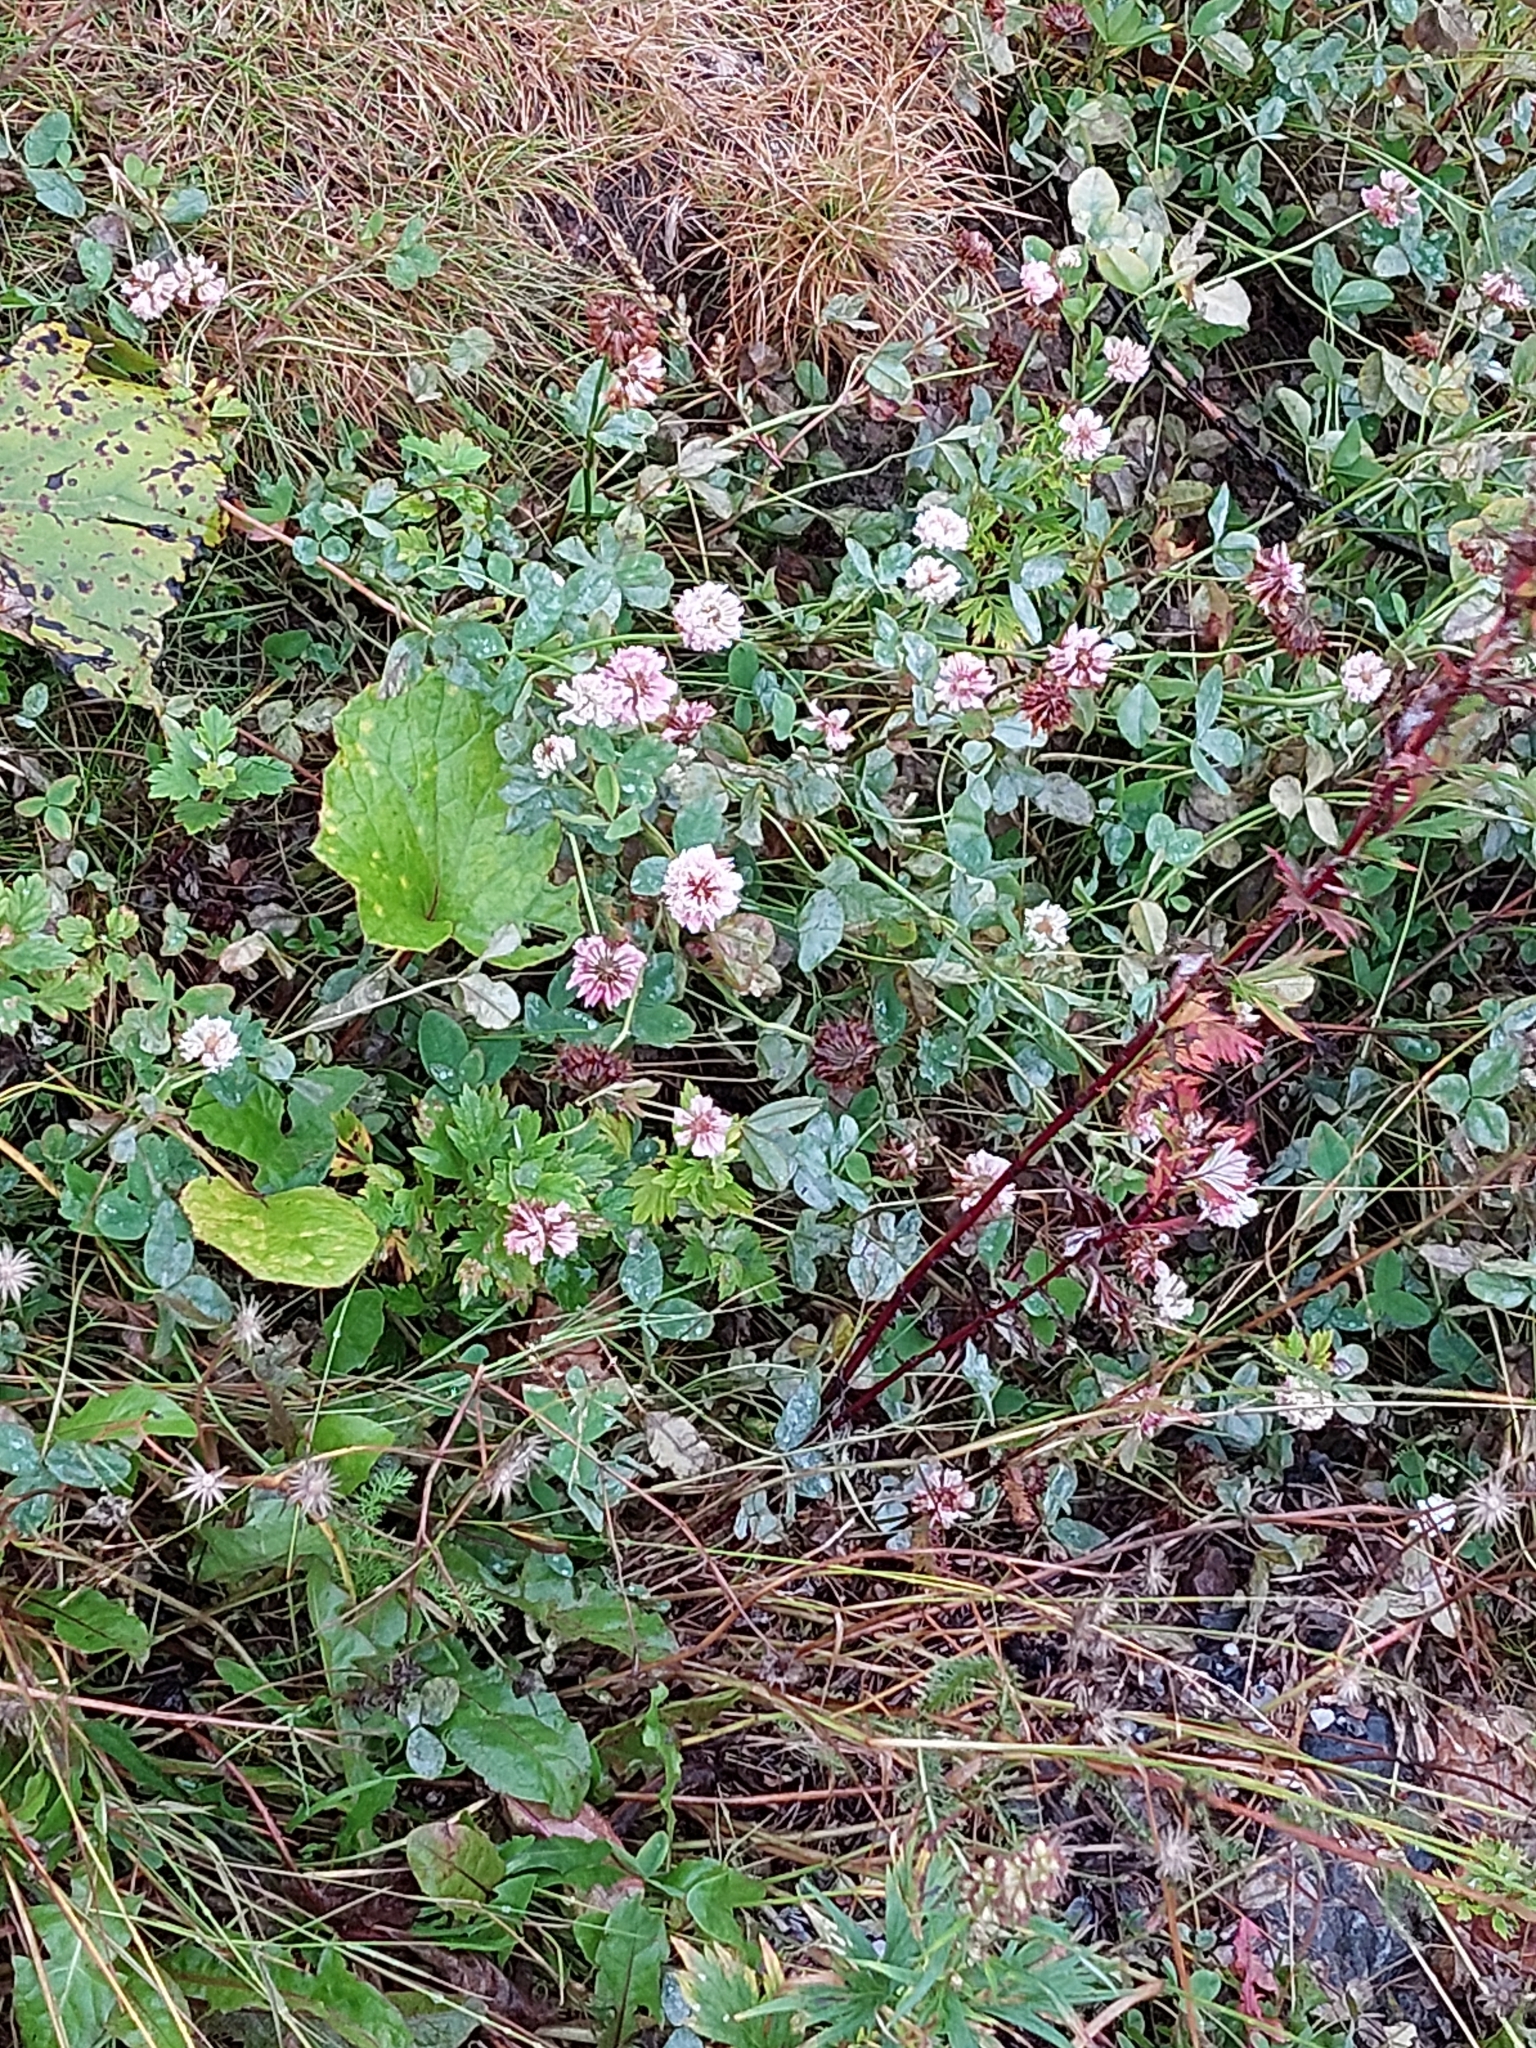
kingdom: Plantae
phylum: Tracheophyta
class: Magnoliopsida
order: Fabales
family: Fabaceae
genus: Trifolium
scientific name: Trifolium hybridum
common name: Alsike clover
